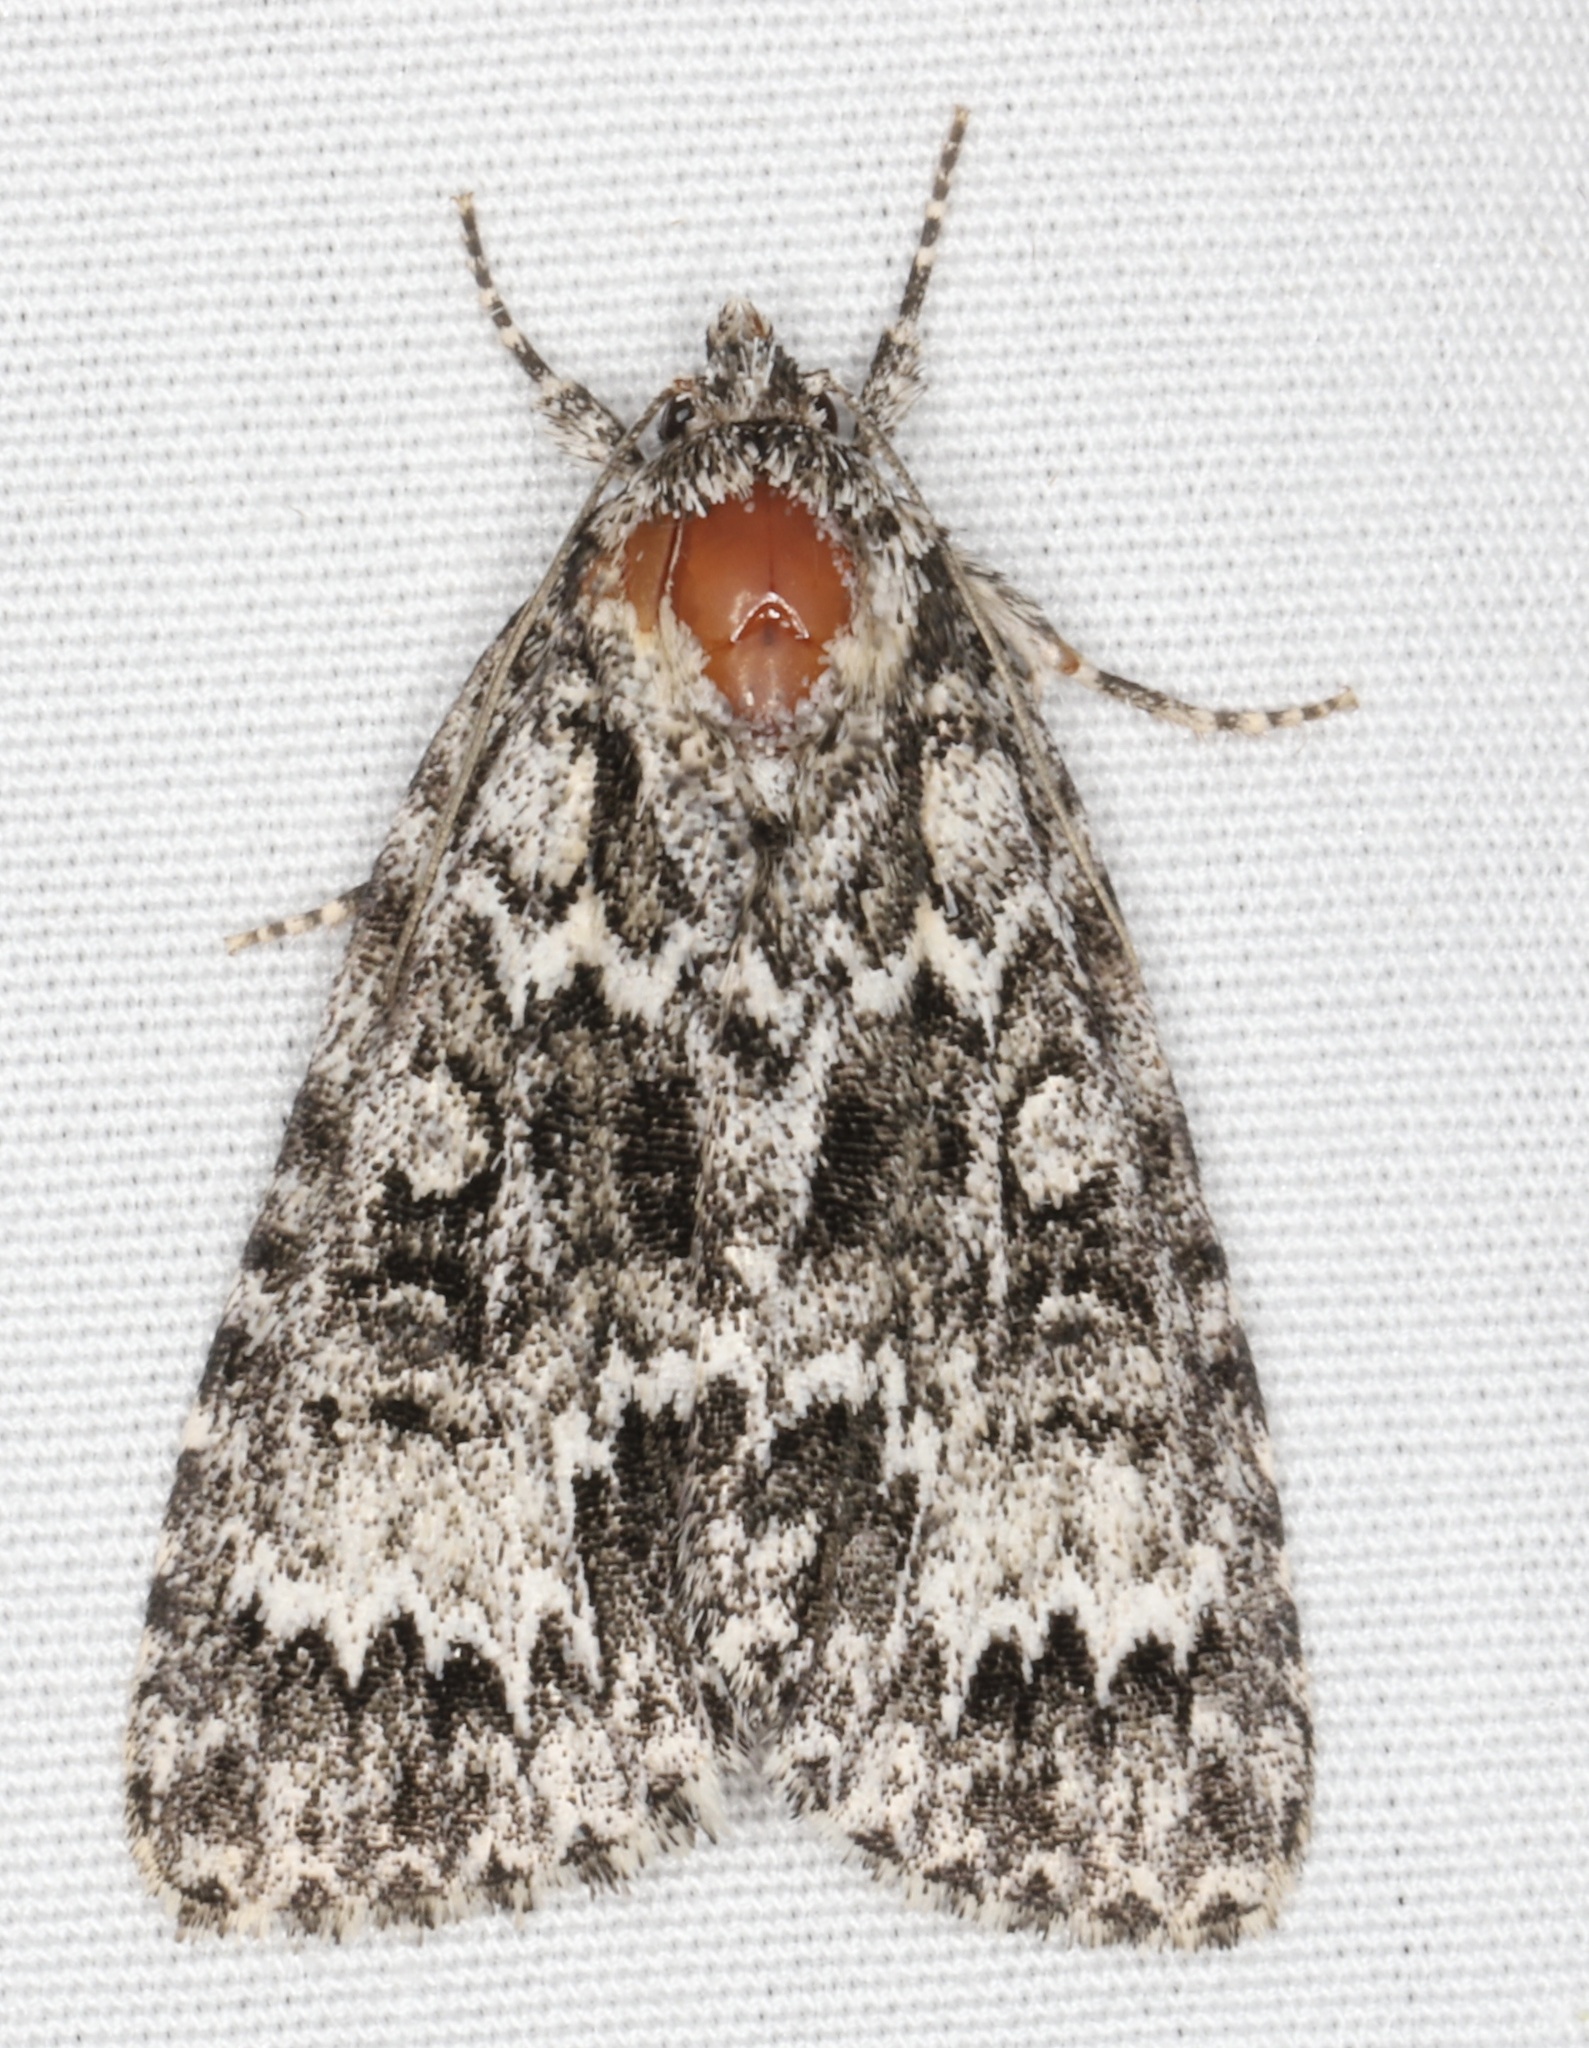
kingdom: Animalia
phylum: Arthropoda
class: Insecta
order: Lepidoptera
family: Noctuidae
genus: Acronicta
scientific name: Acronicta fragilis
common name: Fragile dagger
